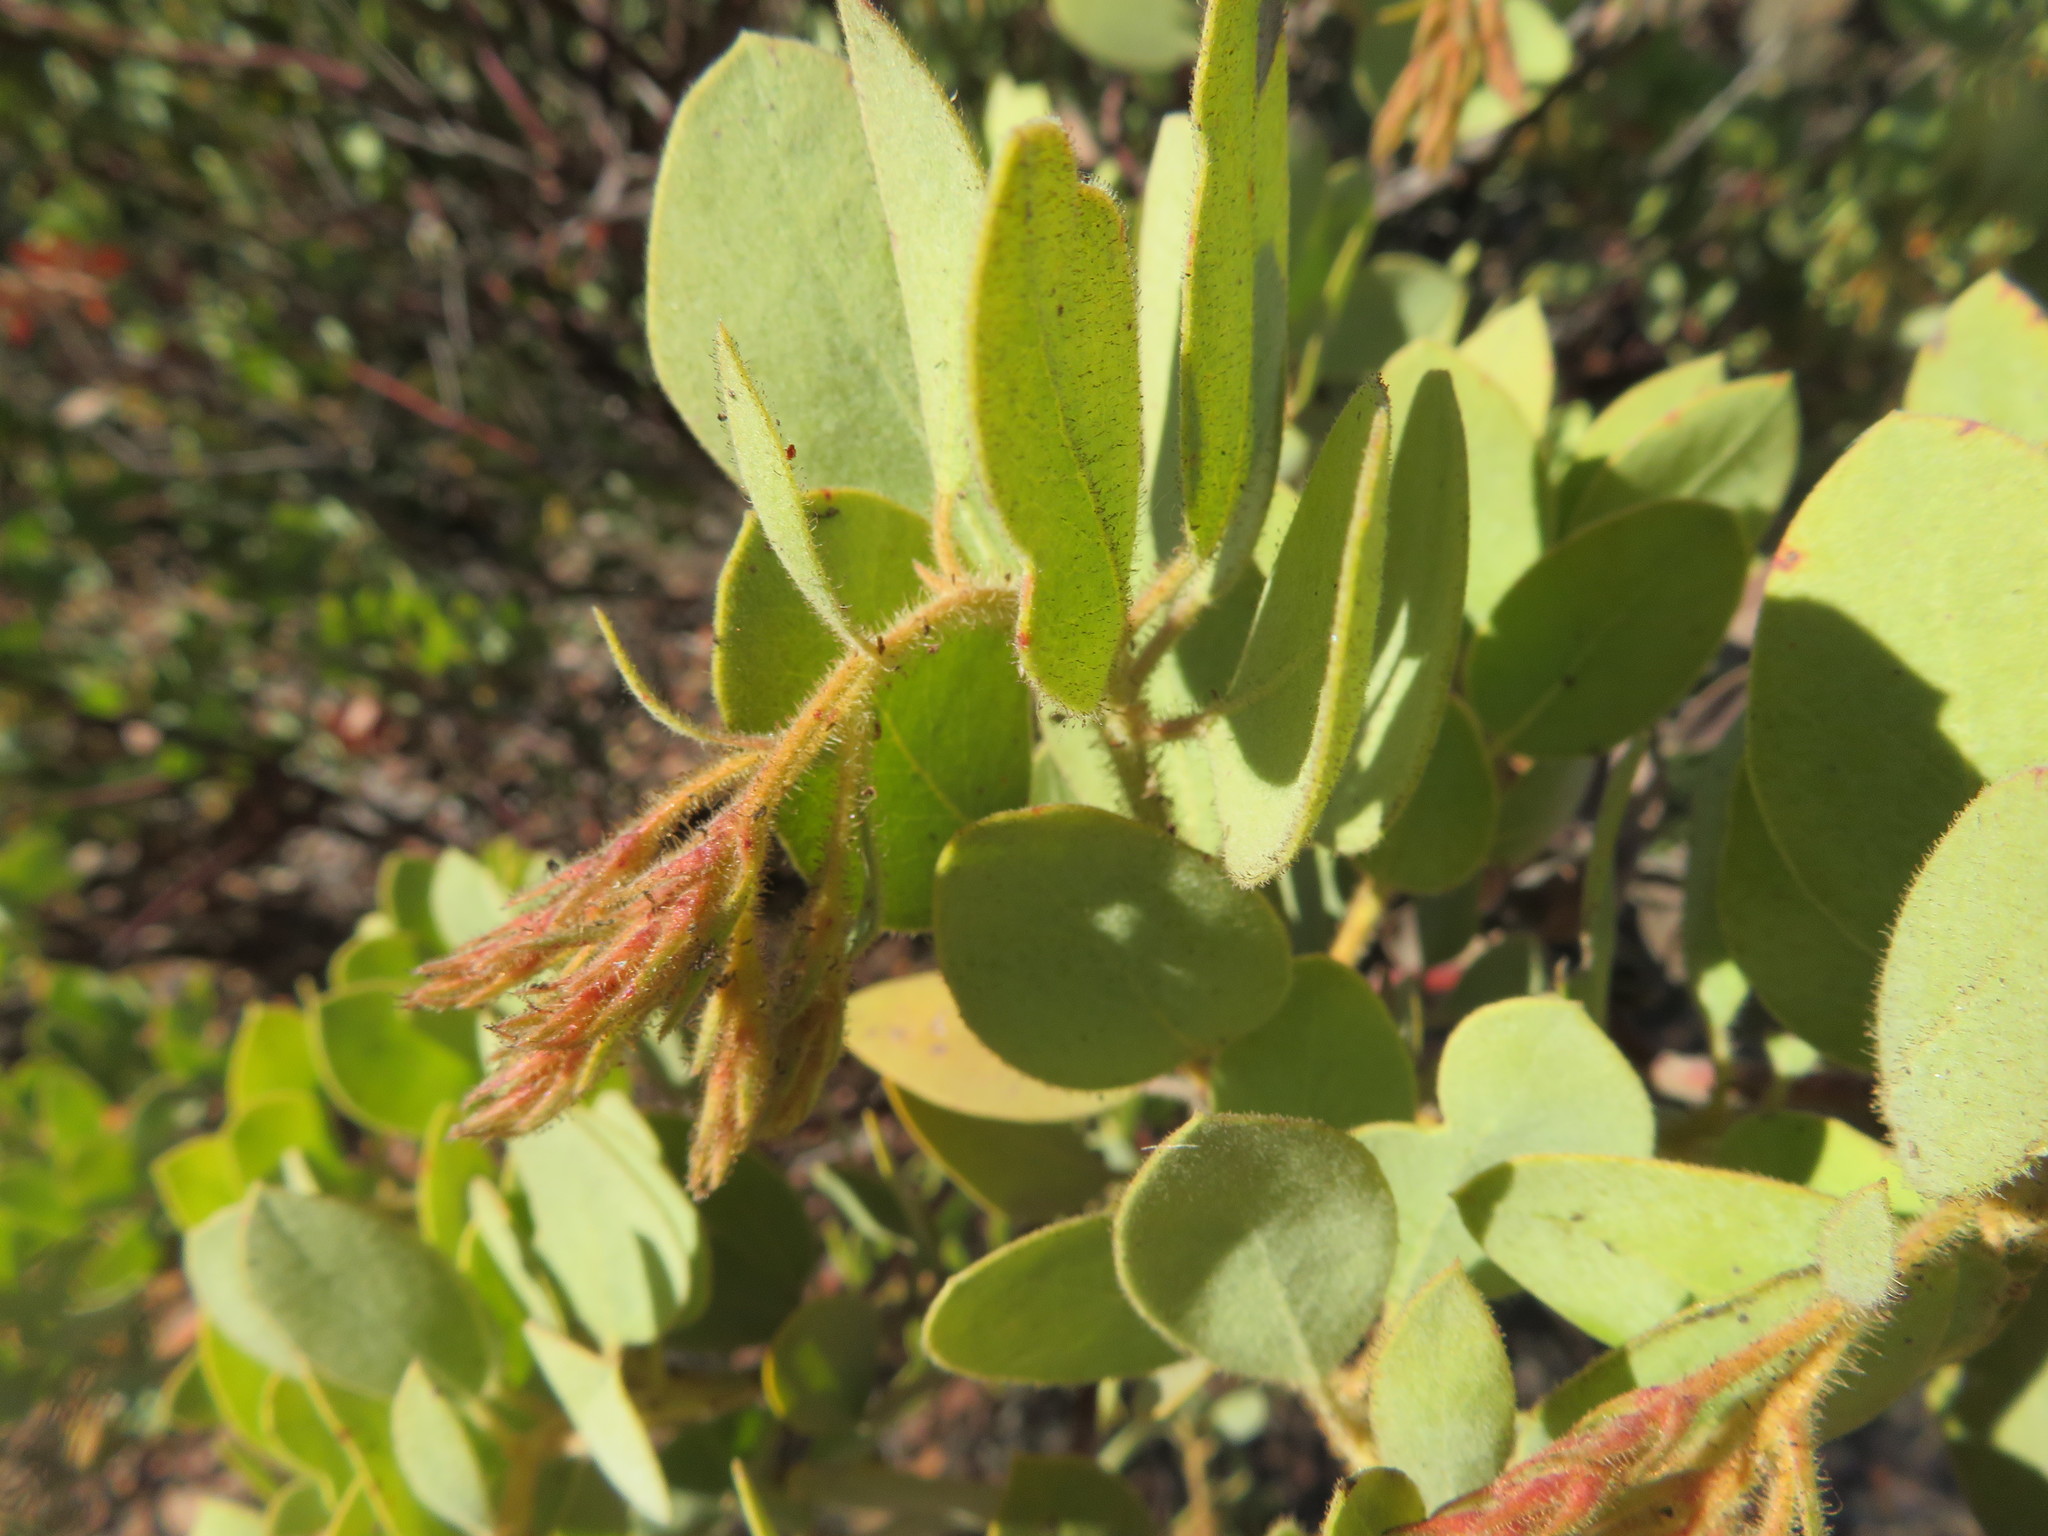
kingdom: Plantae
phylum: Tracheophyta
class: Magnoliopsida
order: Ericales
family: Ericaceae
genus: Arctostaphylos
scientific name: Arctostaphylos otayensis
